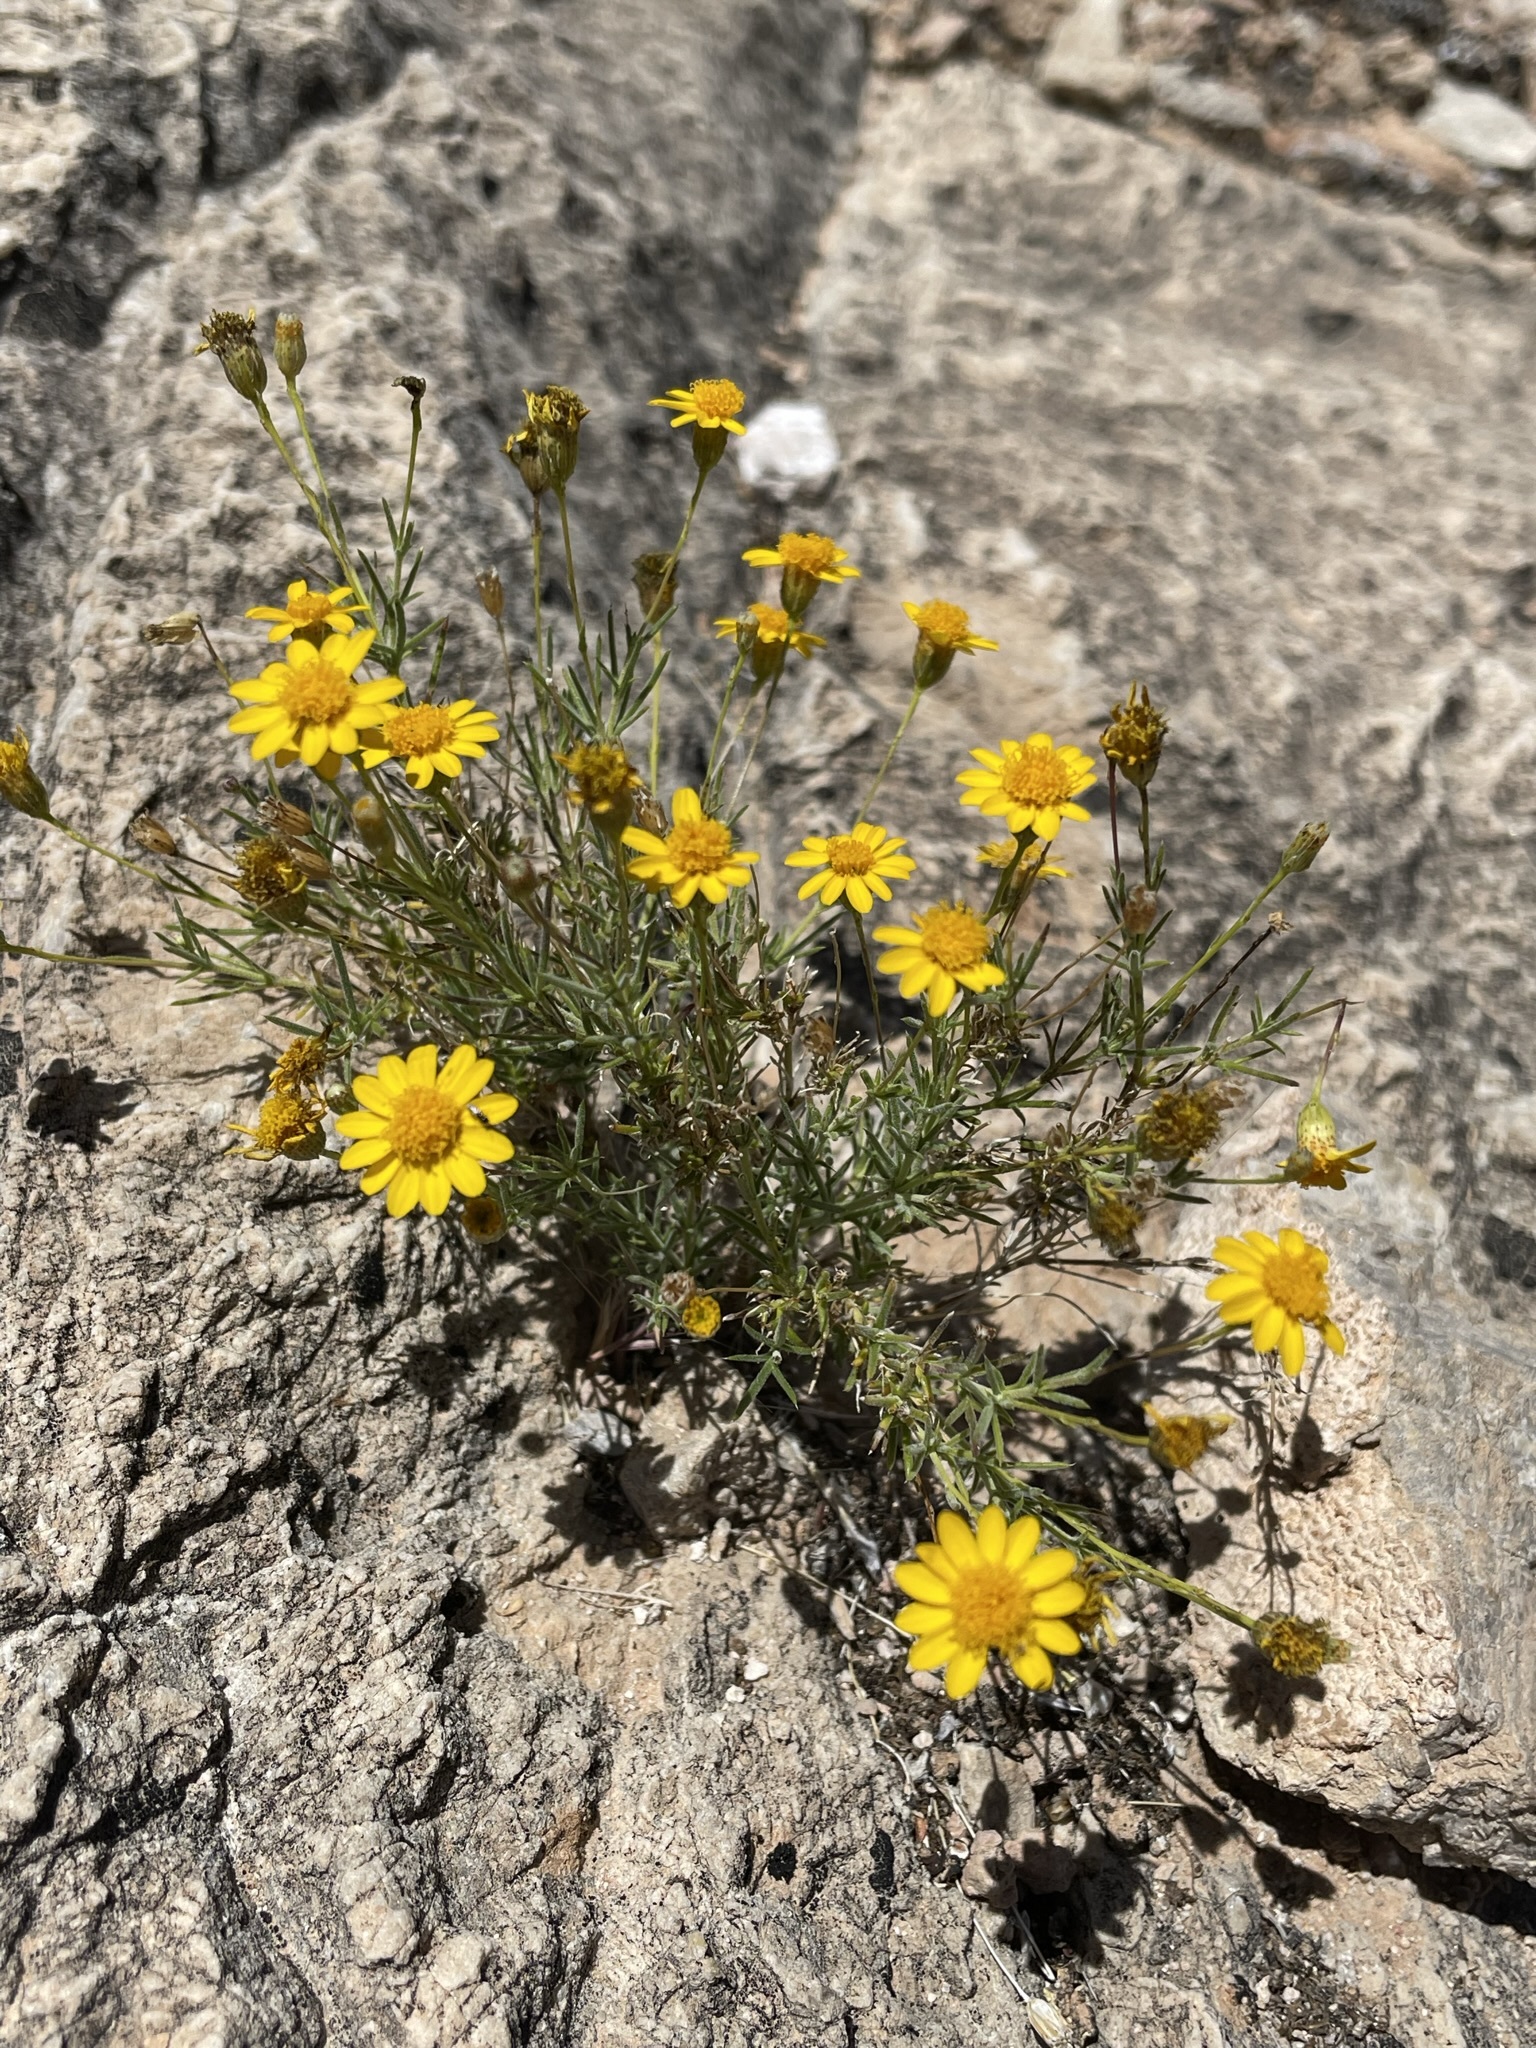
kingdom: Plantae
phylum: Tracheophyta
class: Magnoliopsida
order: Asterales
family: Asteraceae
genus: Thymophylla
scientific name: Thymophylla pentachaeta
